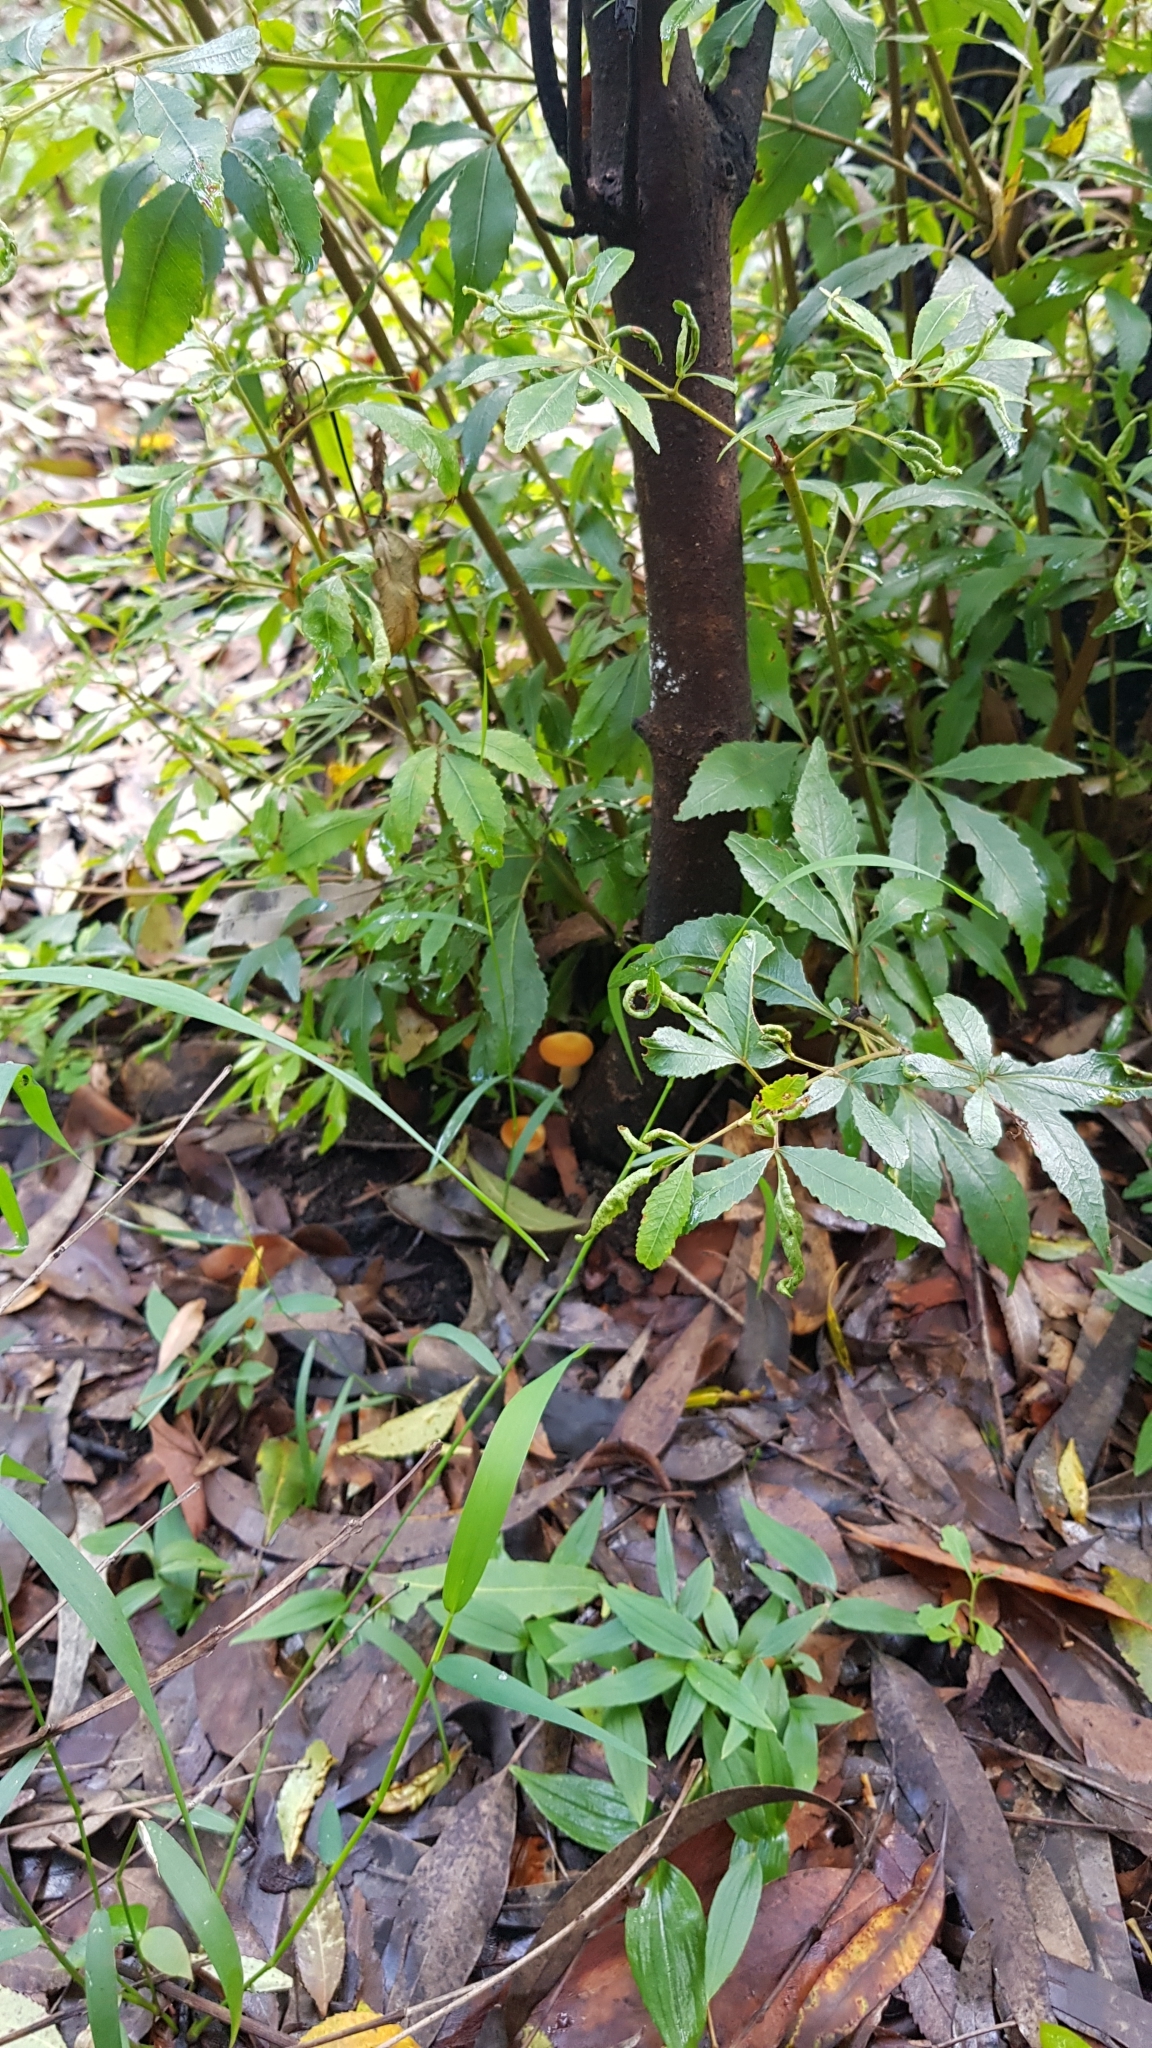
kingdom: Fungi
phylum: Basidiomycota
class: Agaricomycetes
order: Agaricales
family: Omphalotaceae
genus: Omphalotus
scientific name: Omphalotus nidiformis
